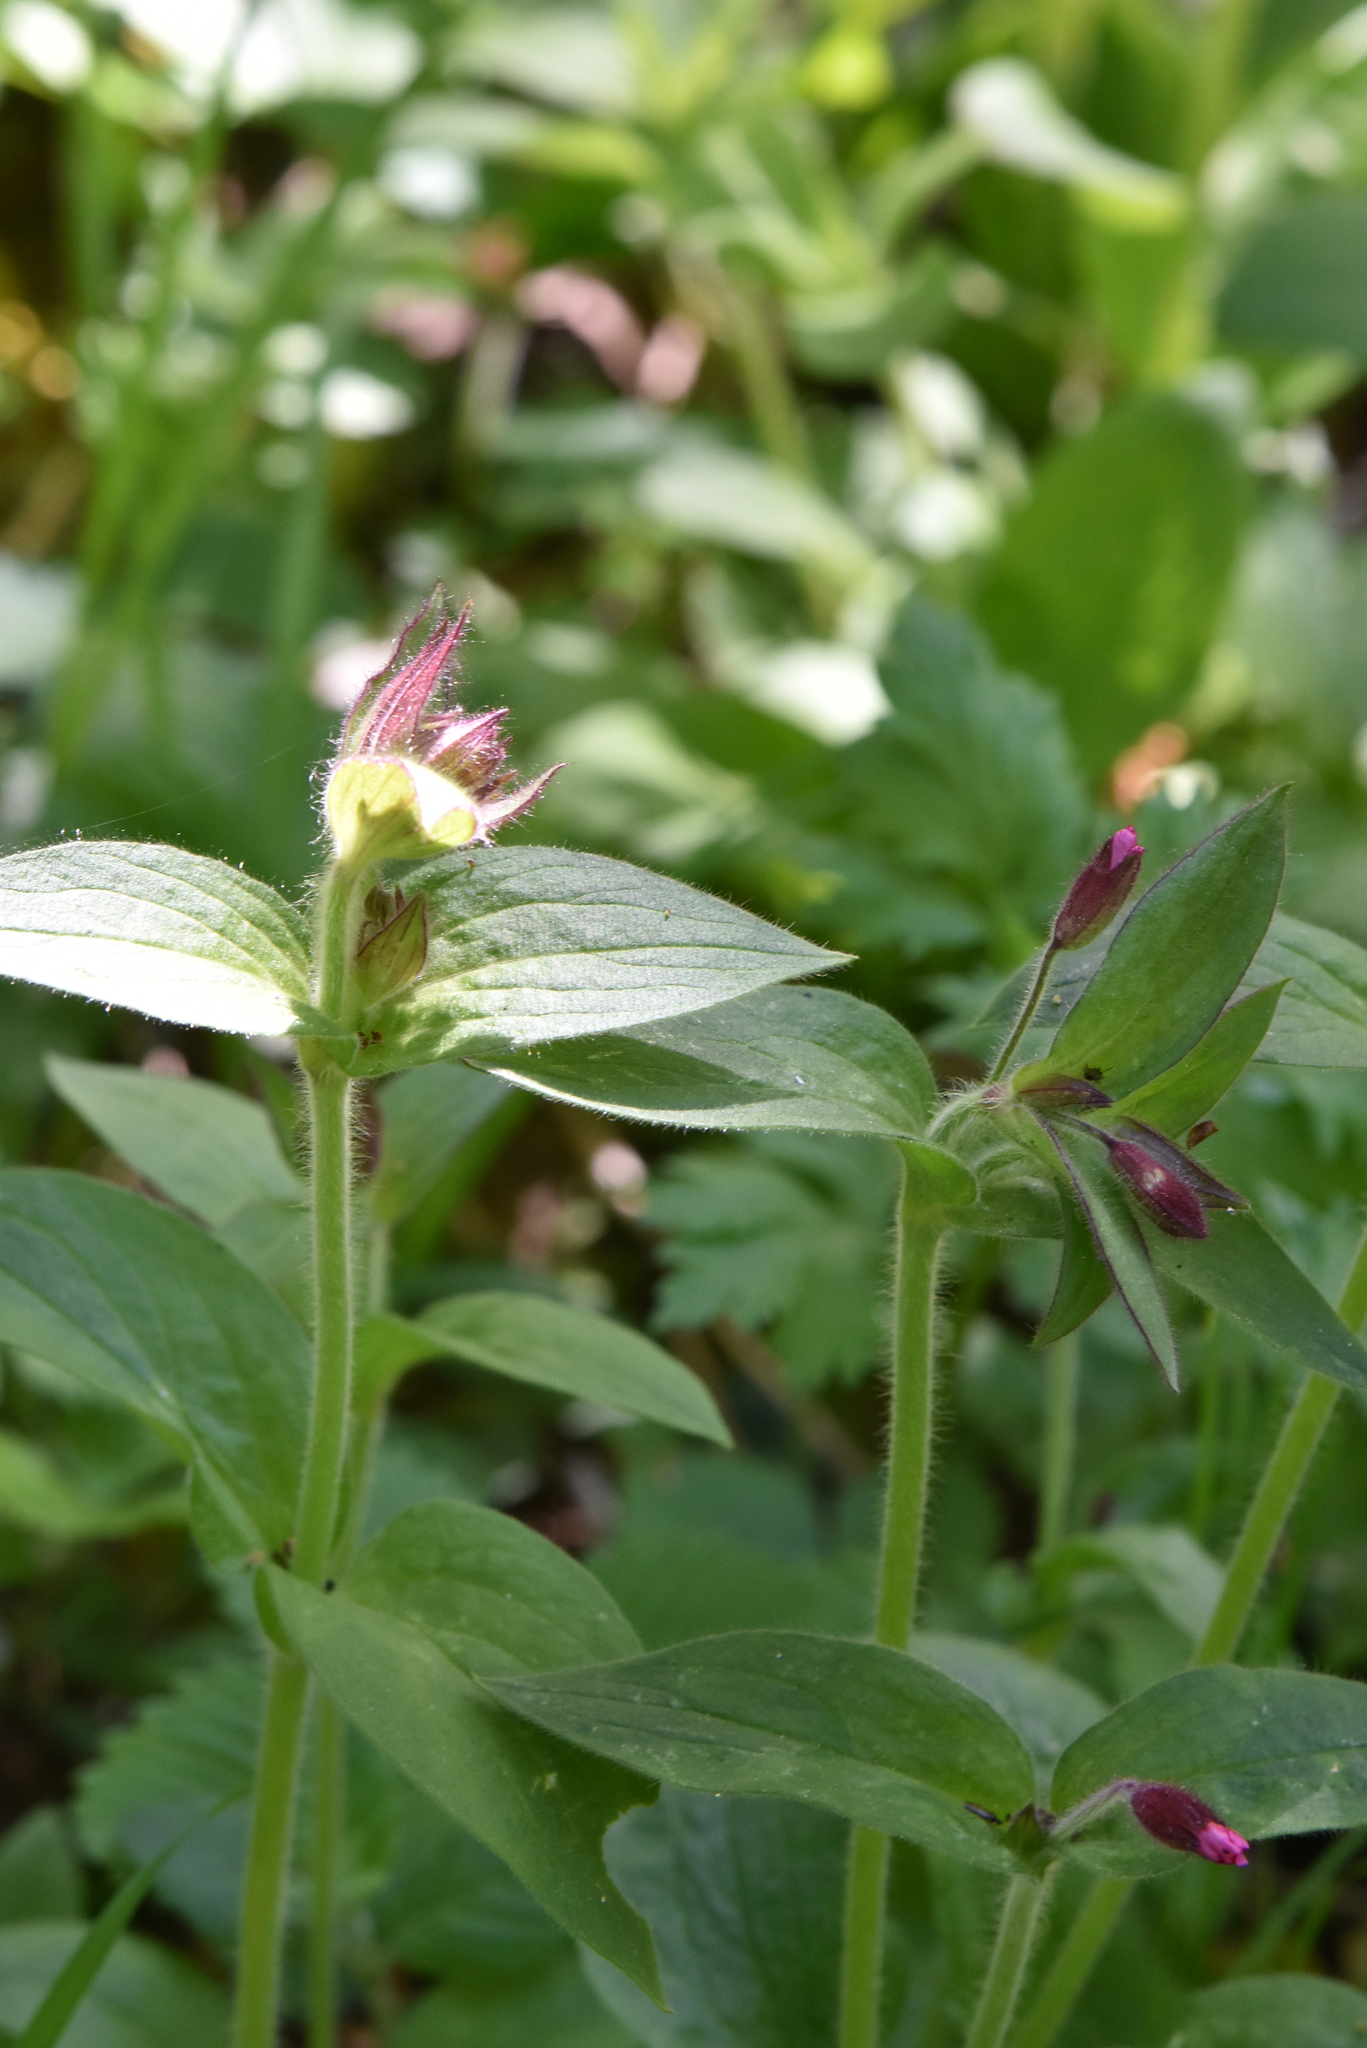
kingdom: Plantae
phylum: Tracheophyta
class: Magnoliopsida
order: Caryophyllales
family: Caryophyllaceae
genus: Silene
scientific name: Silene dioica
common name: Red campion
